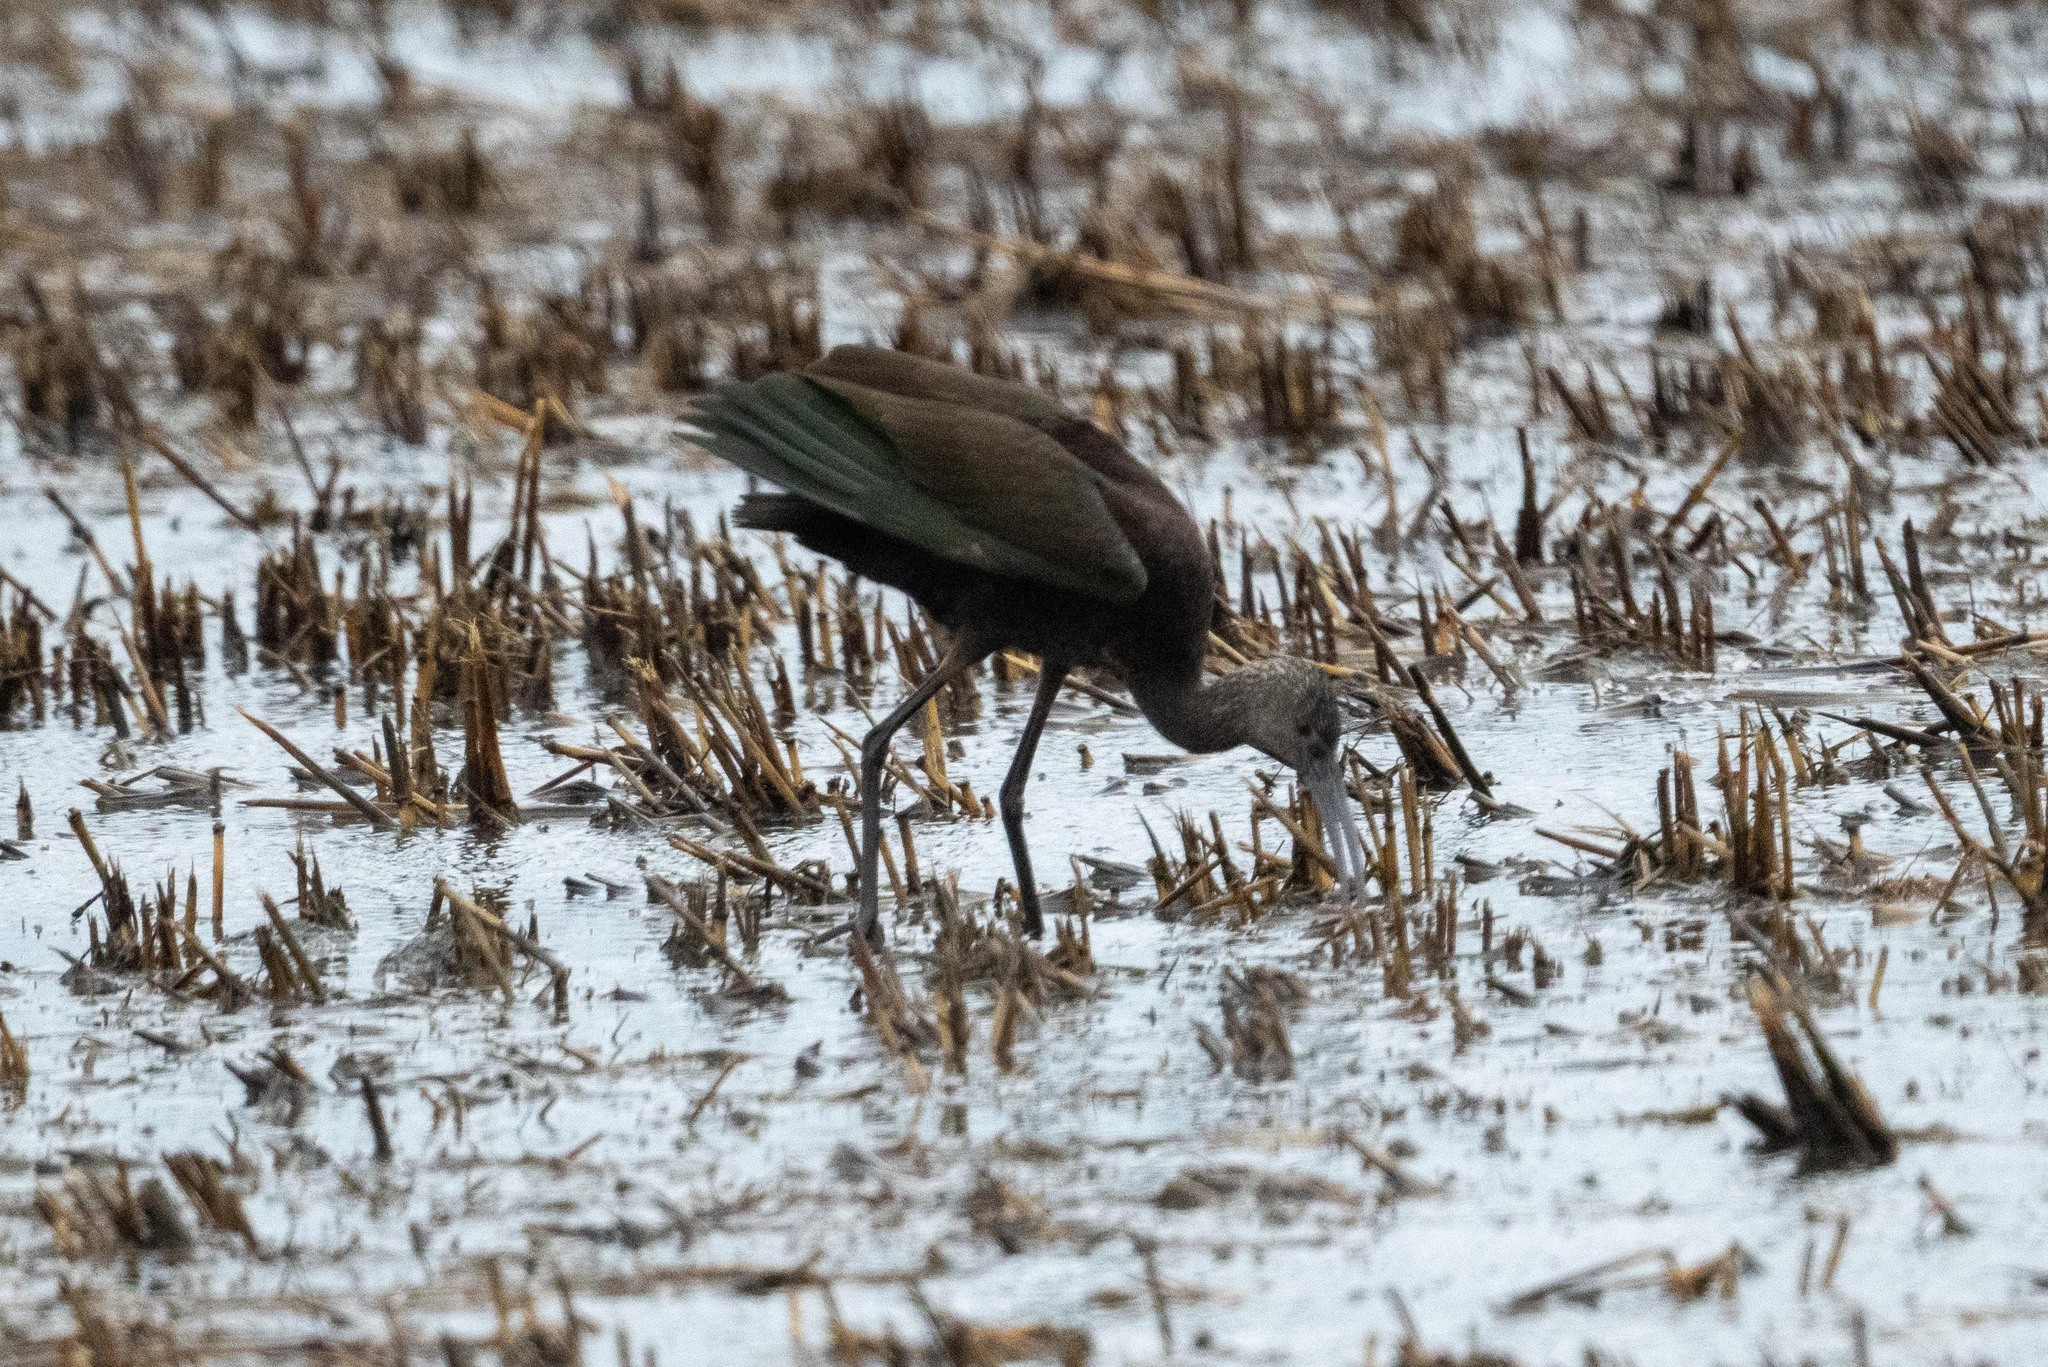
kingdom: Animalia
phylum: Chordata
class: Aves
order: Pelecaniformes
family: Threskiornithidae
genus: Plegadis
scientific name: Plegadis chihi
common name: White-faced ibis
